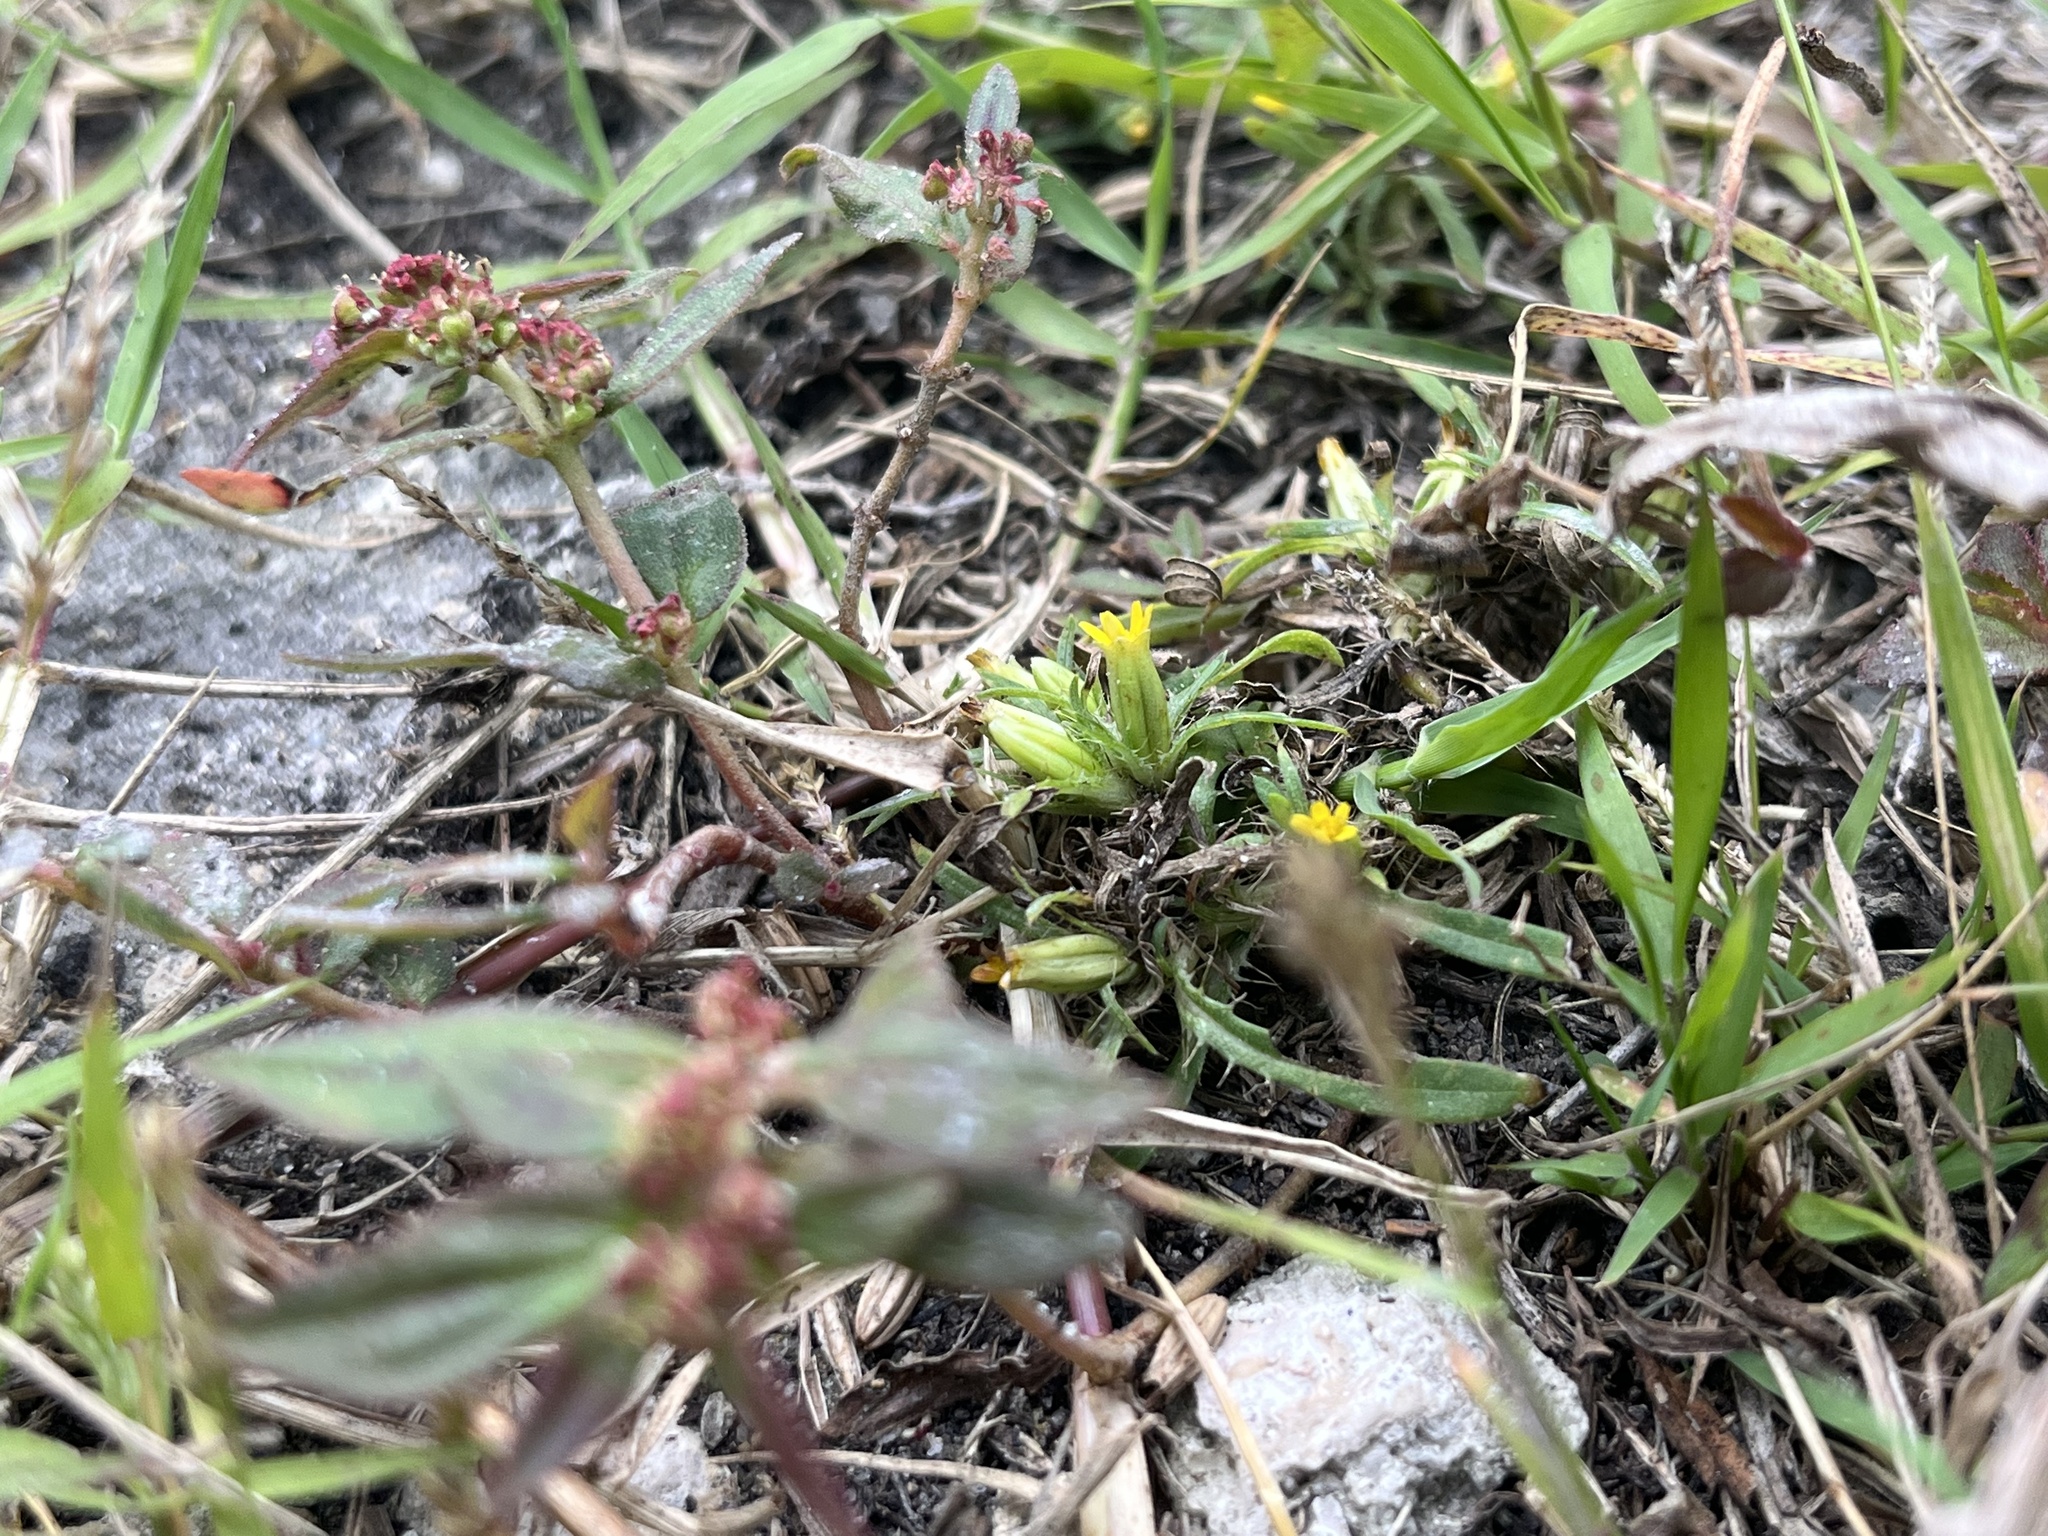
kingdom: Plantae
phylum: Tracheophyta
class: Magnoliopsida
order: Asterales
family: Asteraceae
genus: Pectis
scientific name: Pectis prostrata
